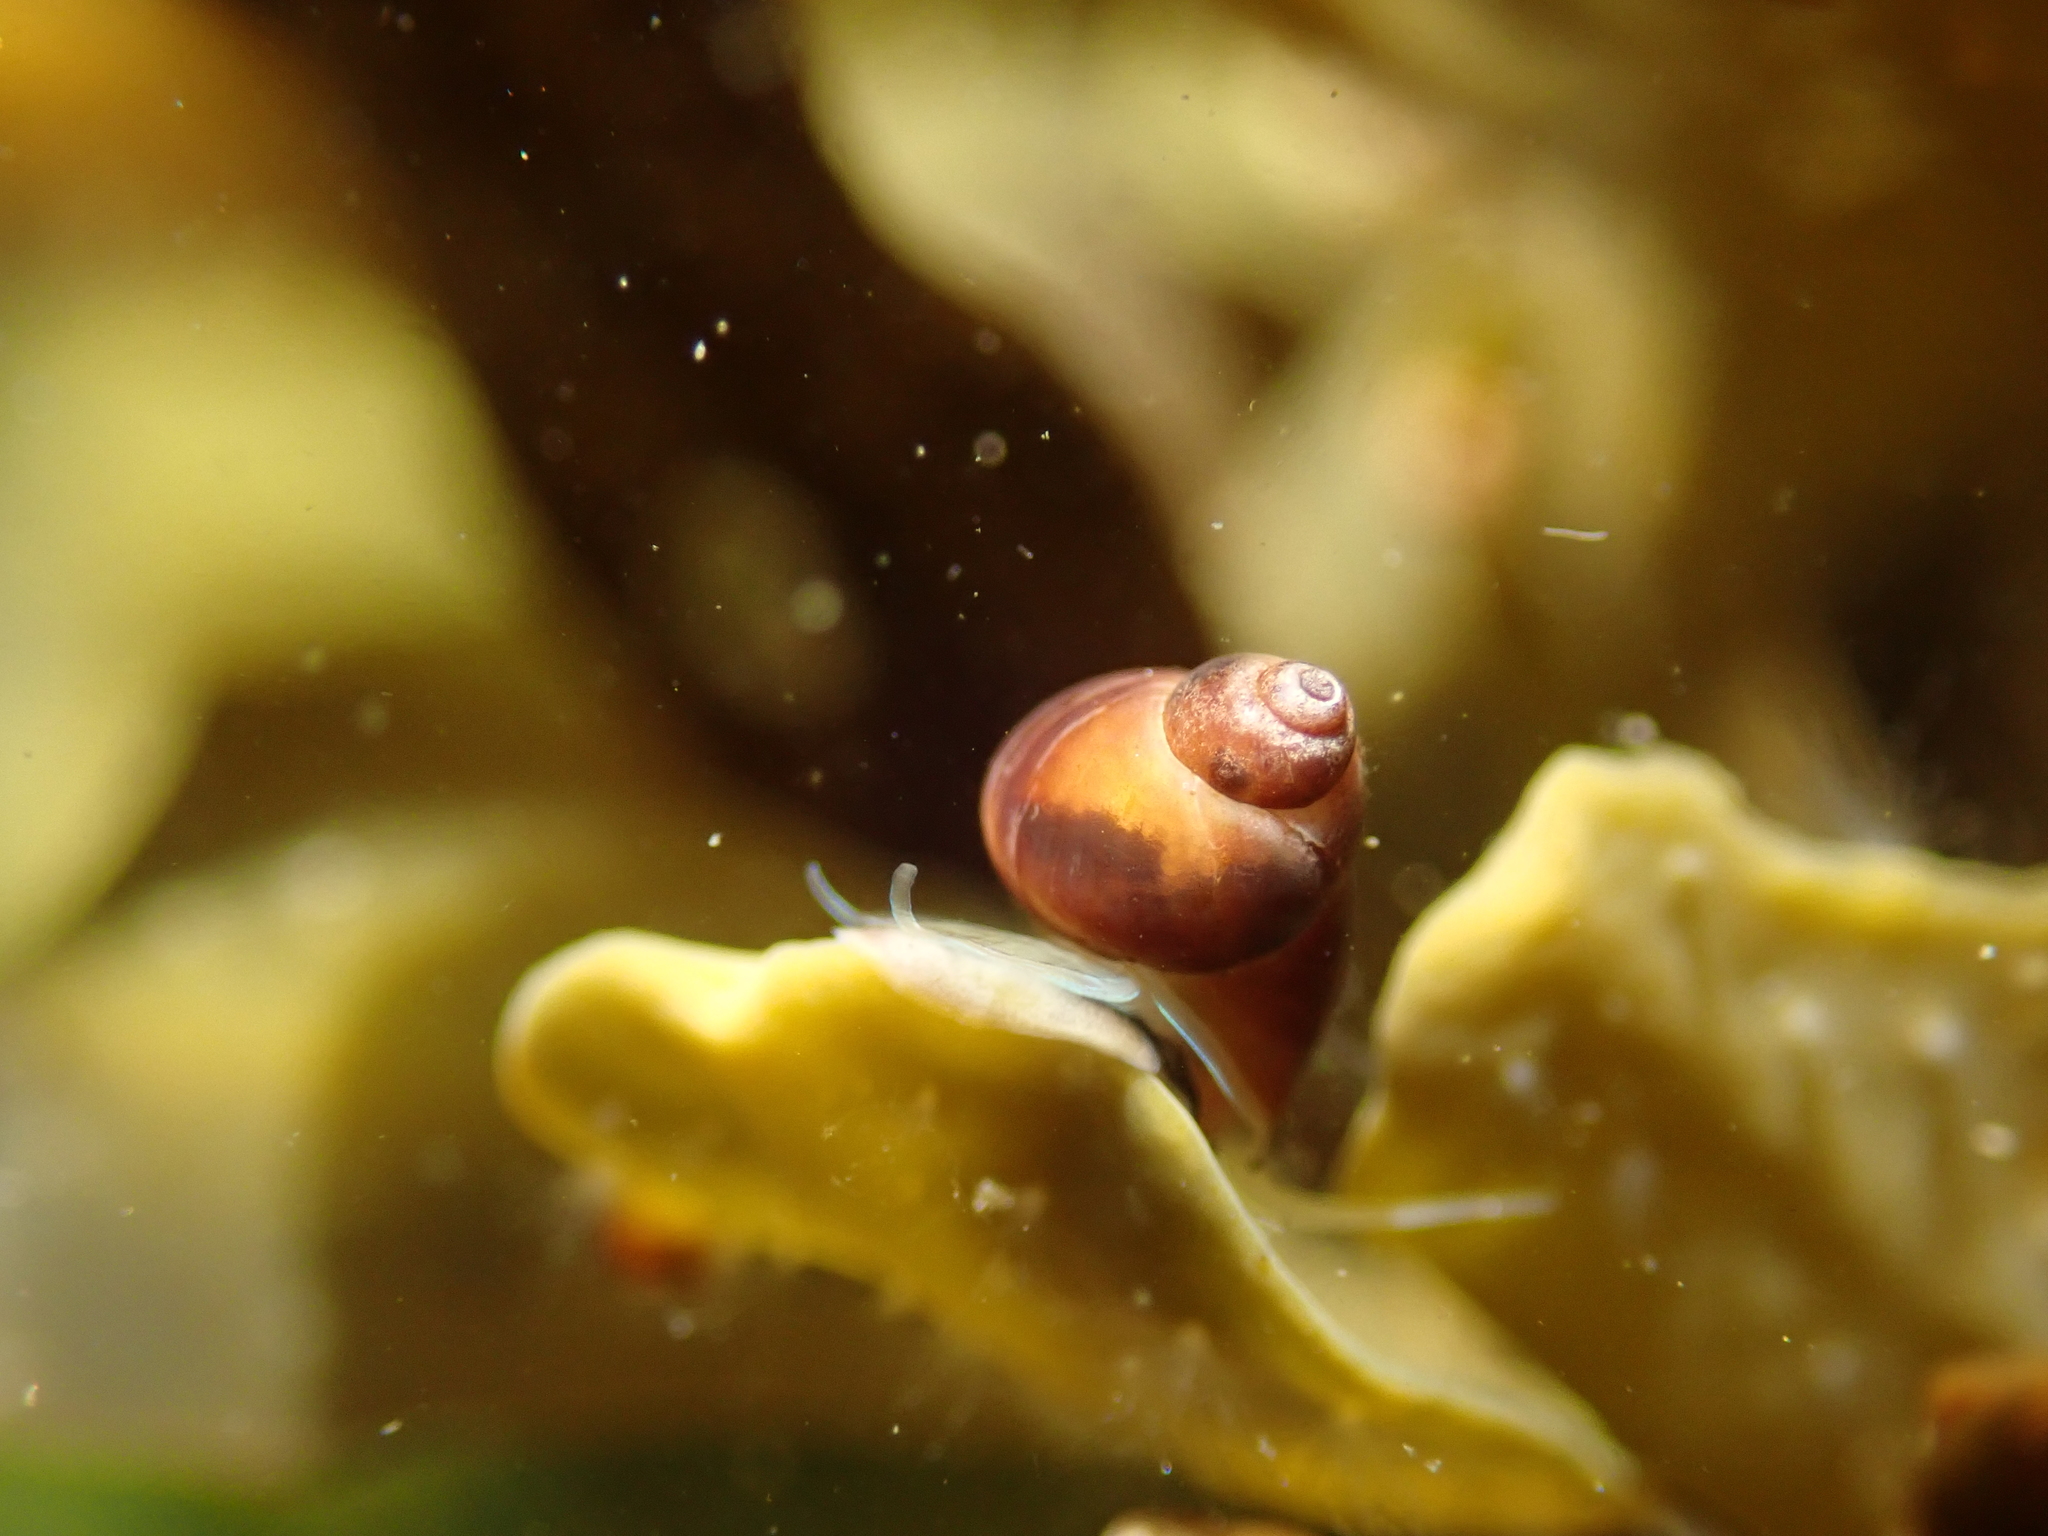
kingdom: Animalia
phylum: Mollusca
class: Gastropoda
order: Littorinimorpha
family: Littorinidae
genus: Lacuna
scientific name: Lacuna vincta
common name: Banded chink shell
